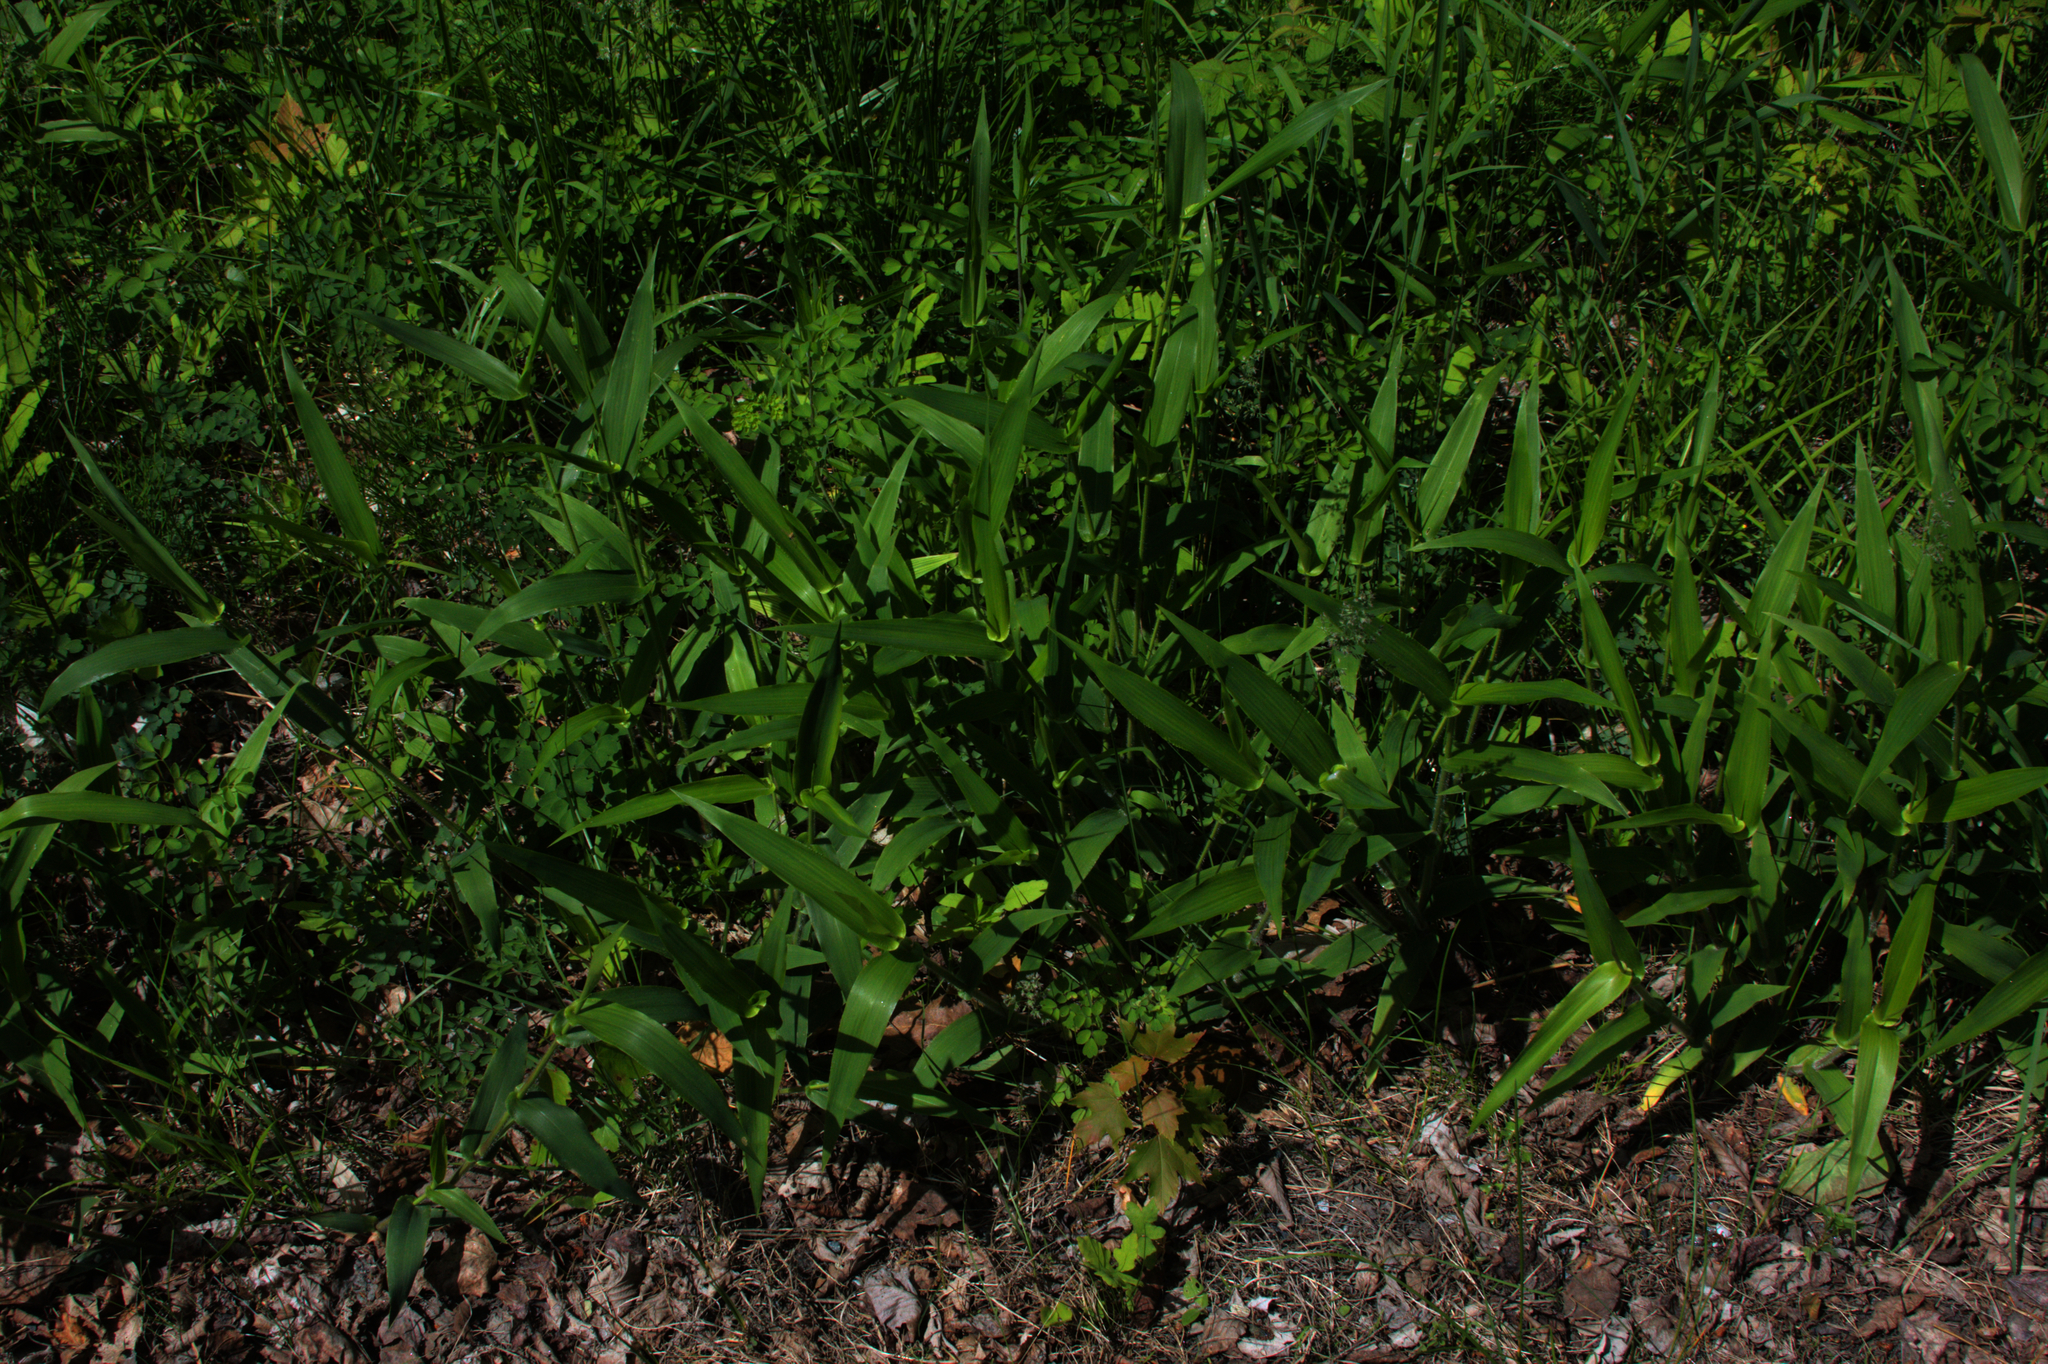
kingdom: Plantae
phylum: Tracheophyta
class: Liliopsida
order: Poales
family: Poaceae
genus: Dichanthelium
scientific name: Dichanthelium clandestinum
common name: Deer-tongue grass
